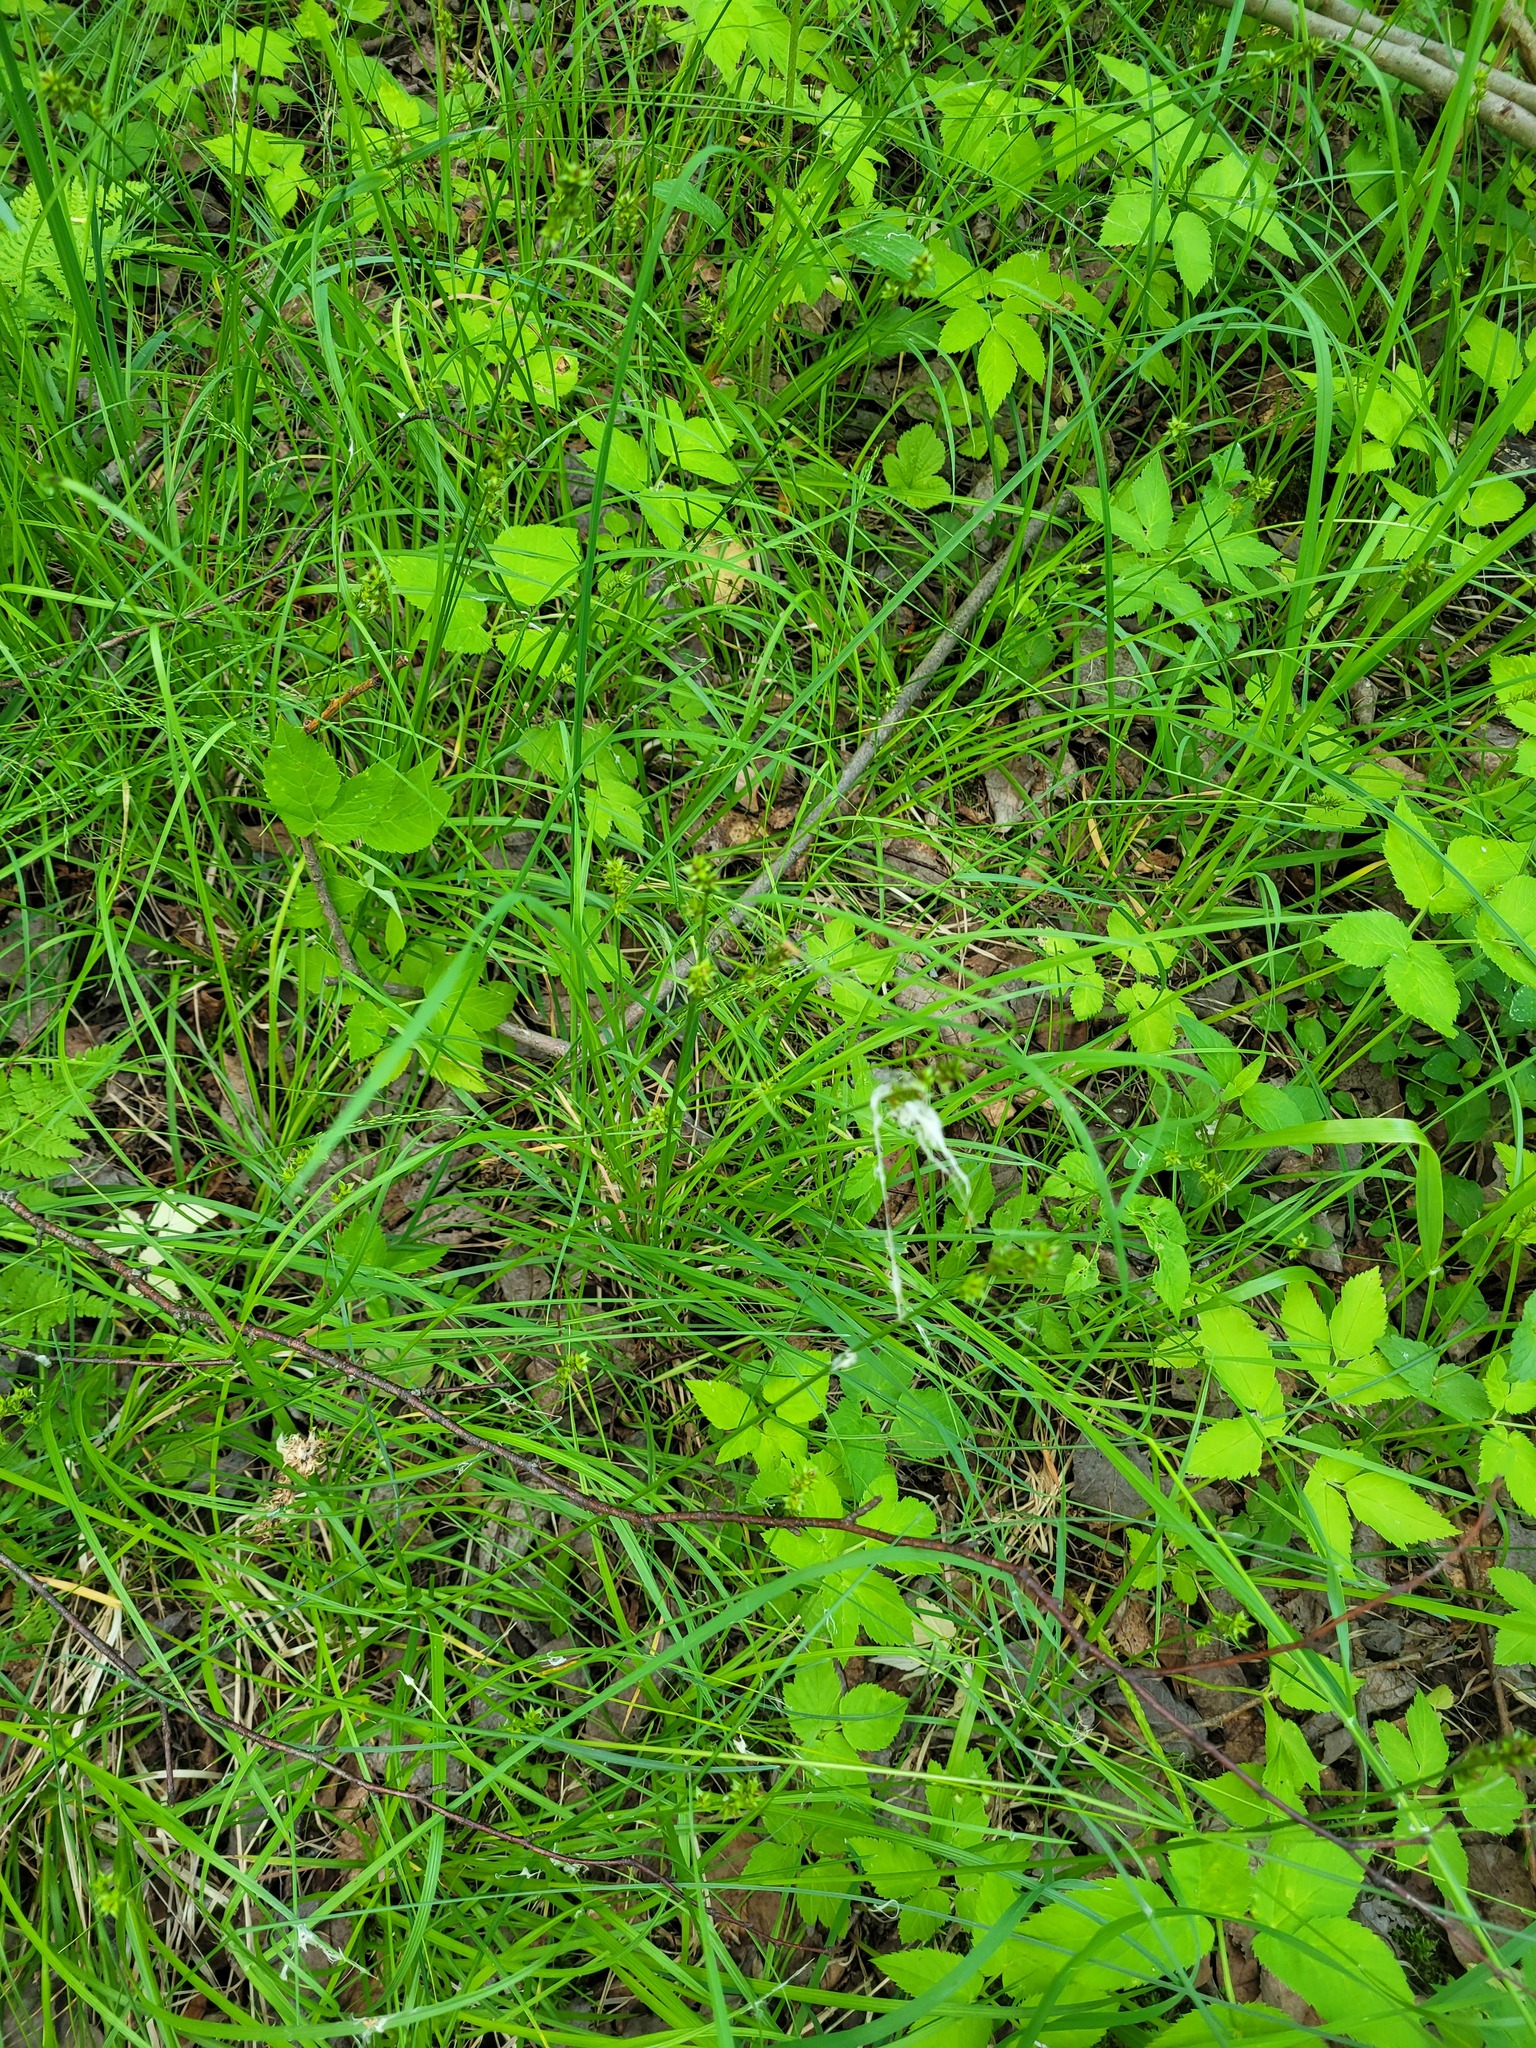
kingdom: Plantae
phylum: Tracheophyta
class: Liliopsida
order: Poales
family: Cyperaceae
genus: Carex
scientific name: Carex muricata
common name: Rough sedge
